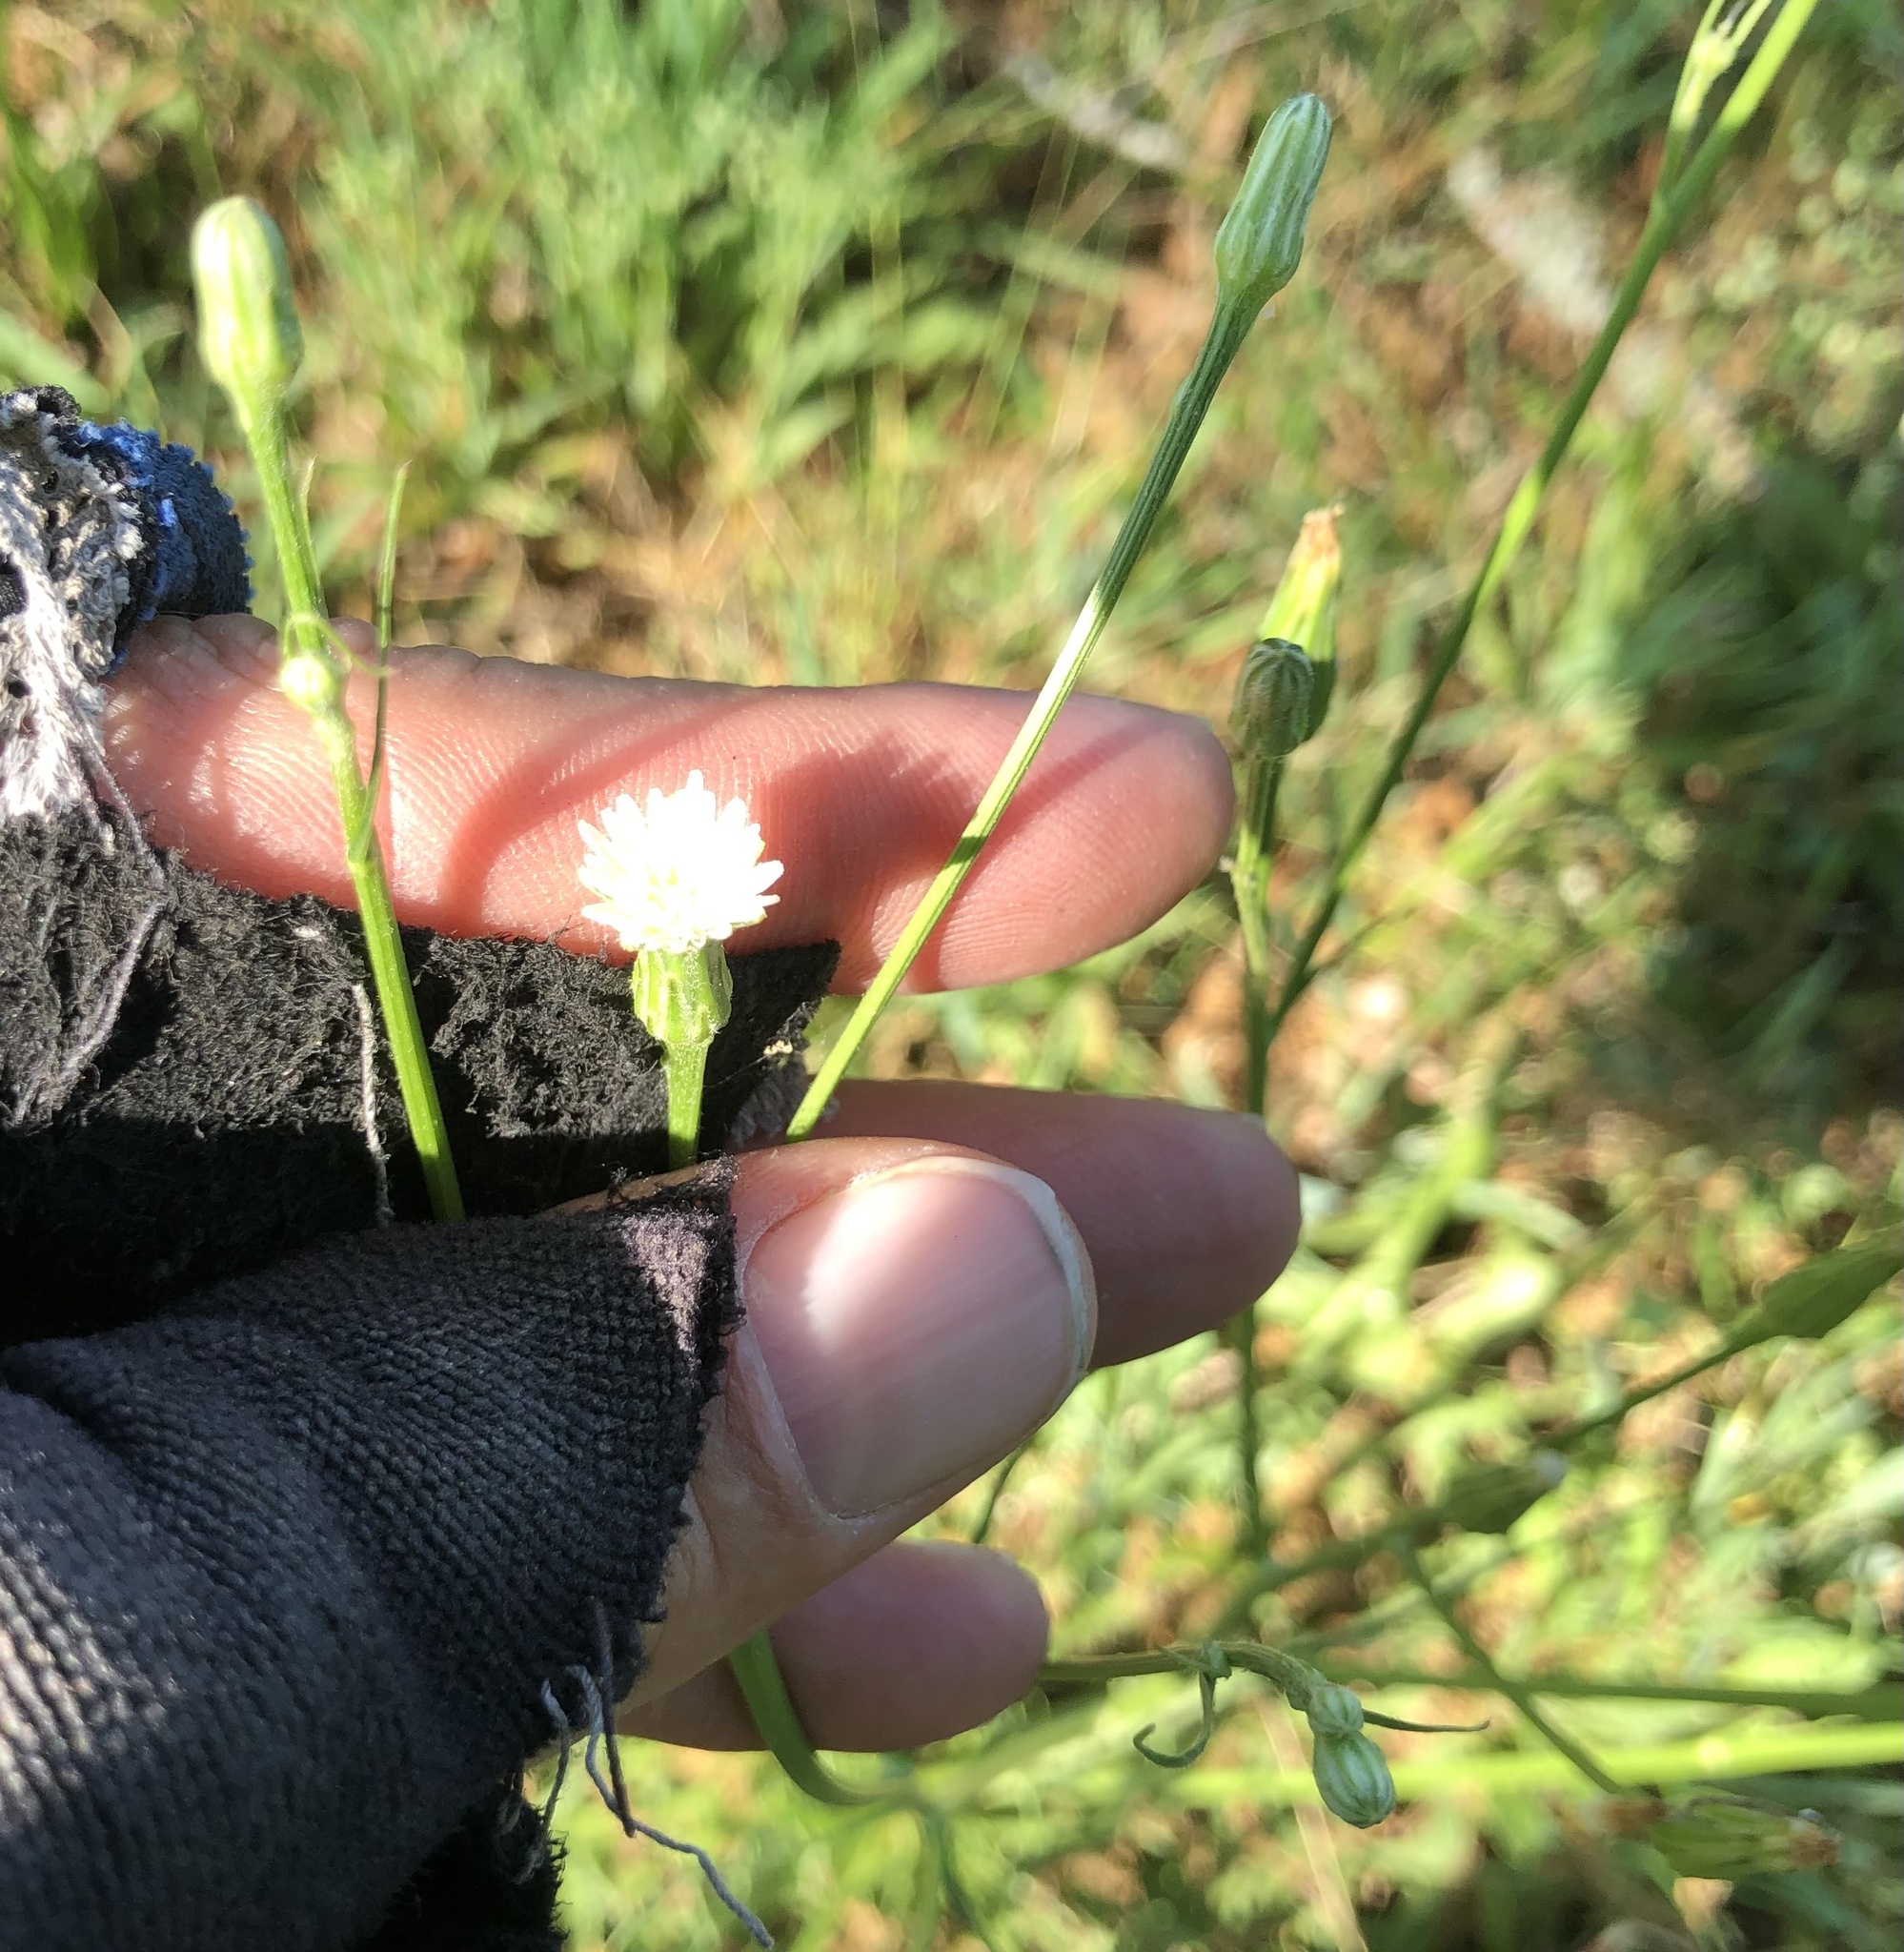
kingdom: Plantae
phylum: Tracheophyta
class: Magnoliopsida
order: Asterales
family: Asteraceae
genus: Hypochaeris
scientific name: Hypochaeris albiflora
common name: White flatweed
